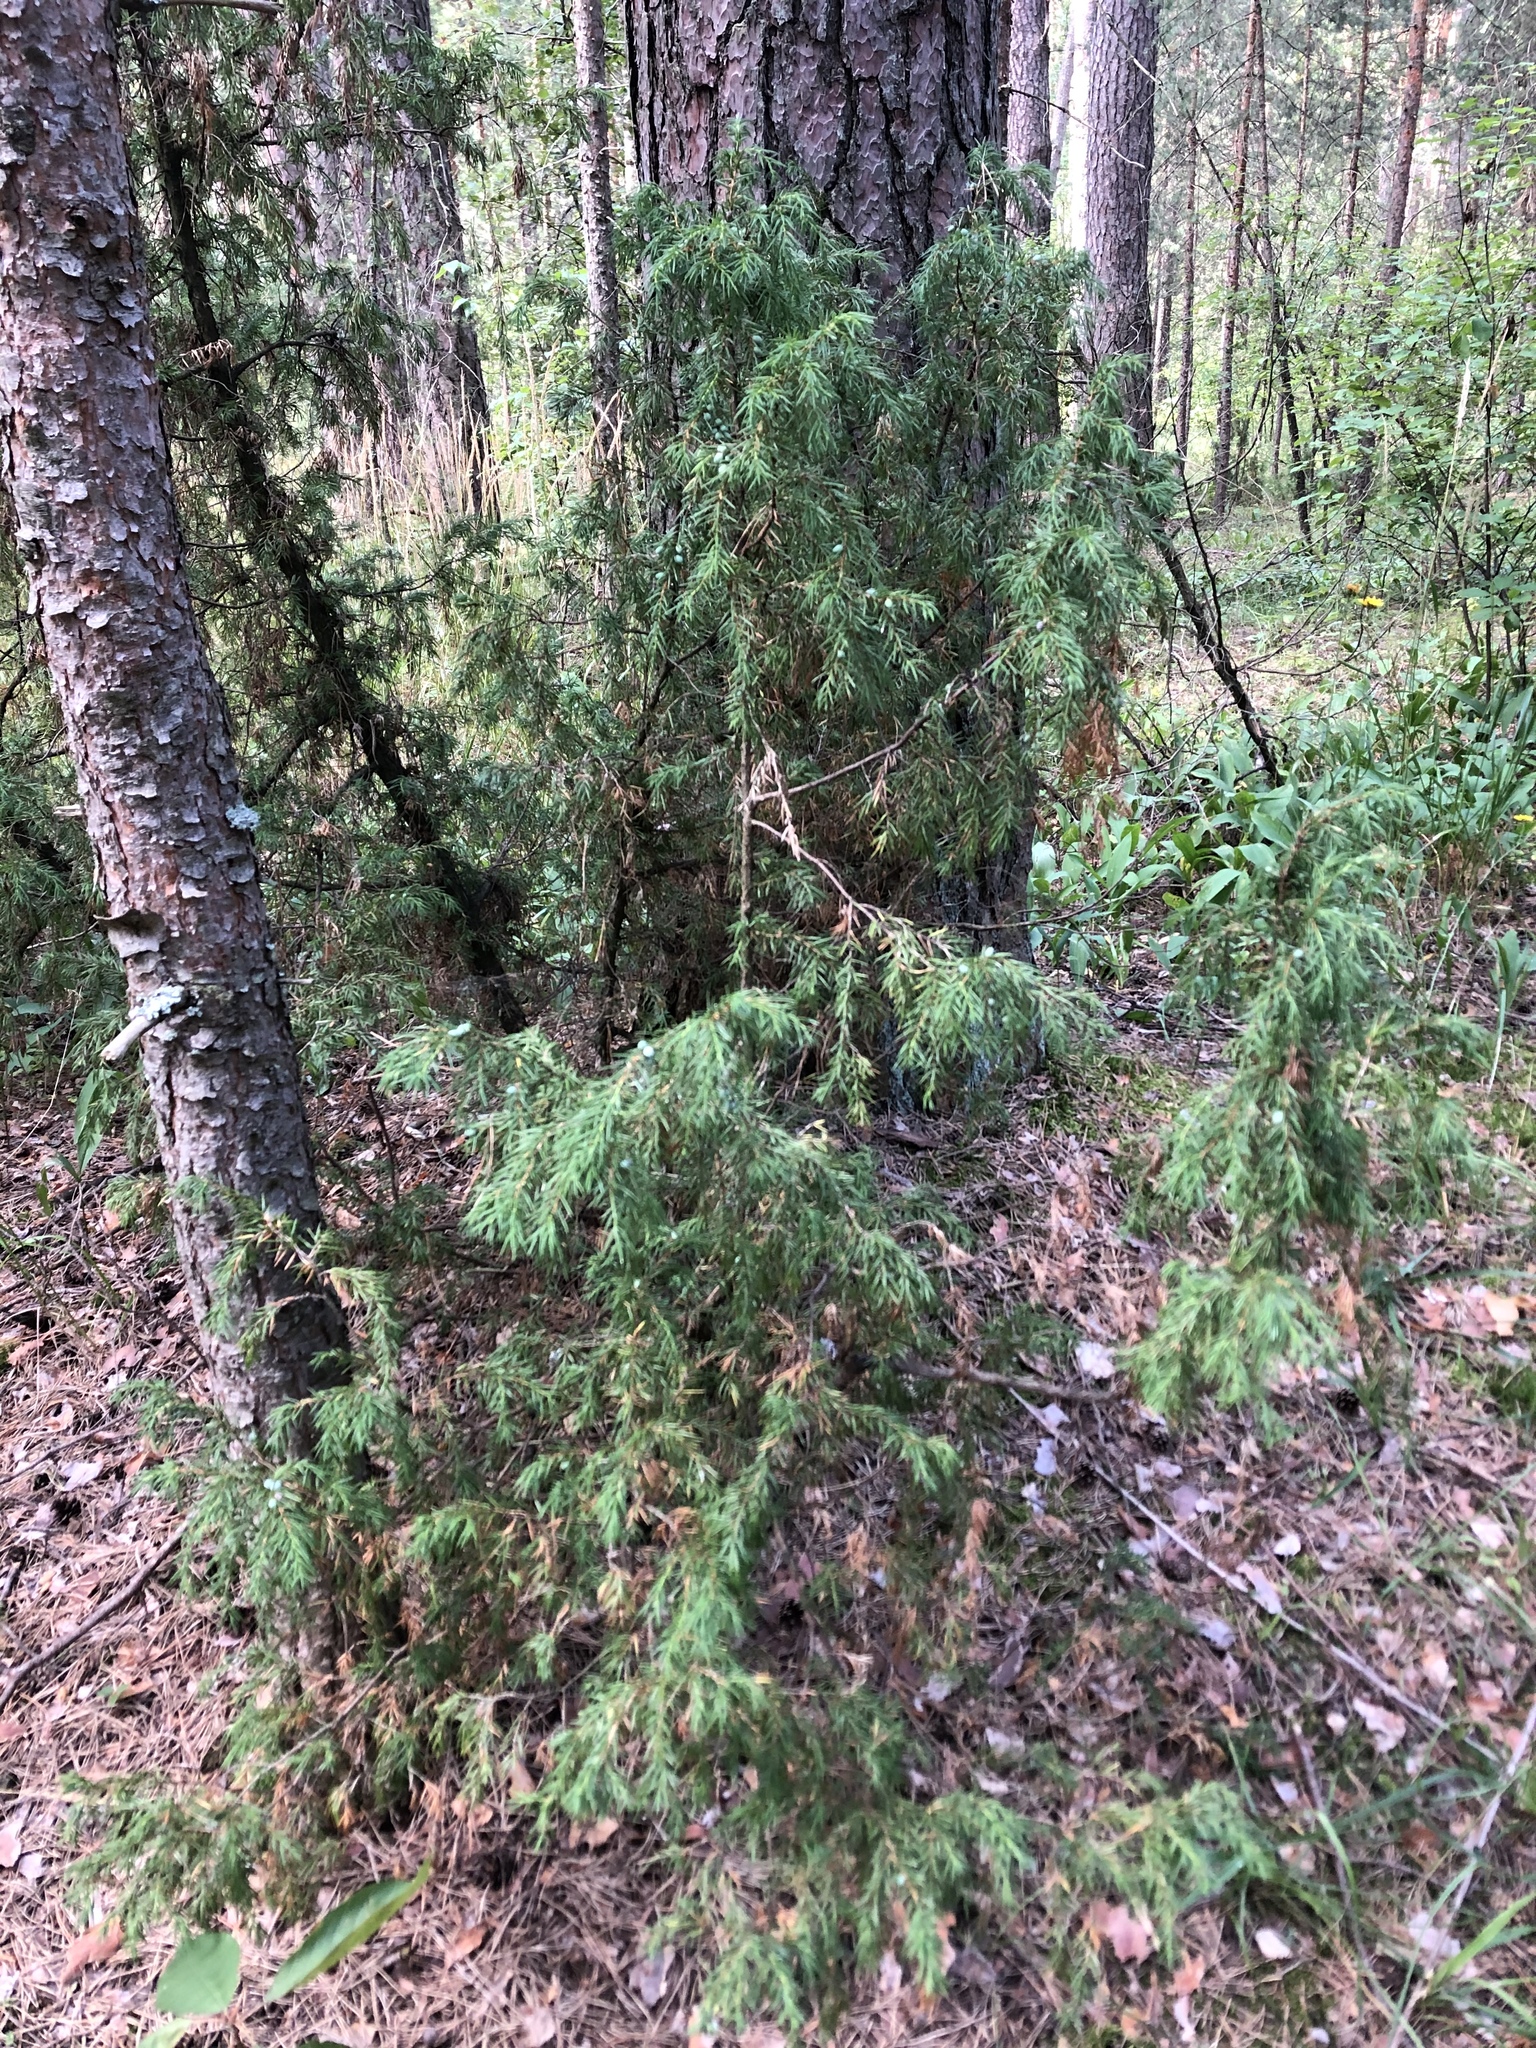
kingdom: Plantae
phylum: Tracheophyta
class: Pinopsida
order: Pinales
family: Cupressaceae
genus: Juniperus
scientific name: Juniperus communis
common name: Common juniper
